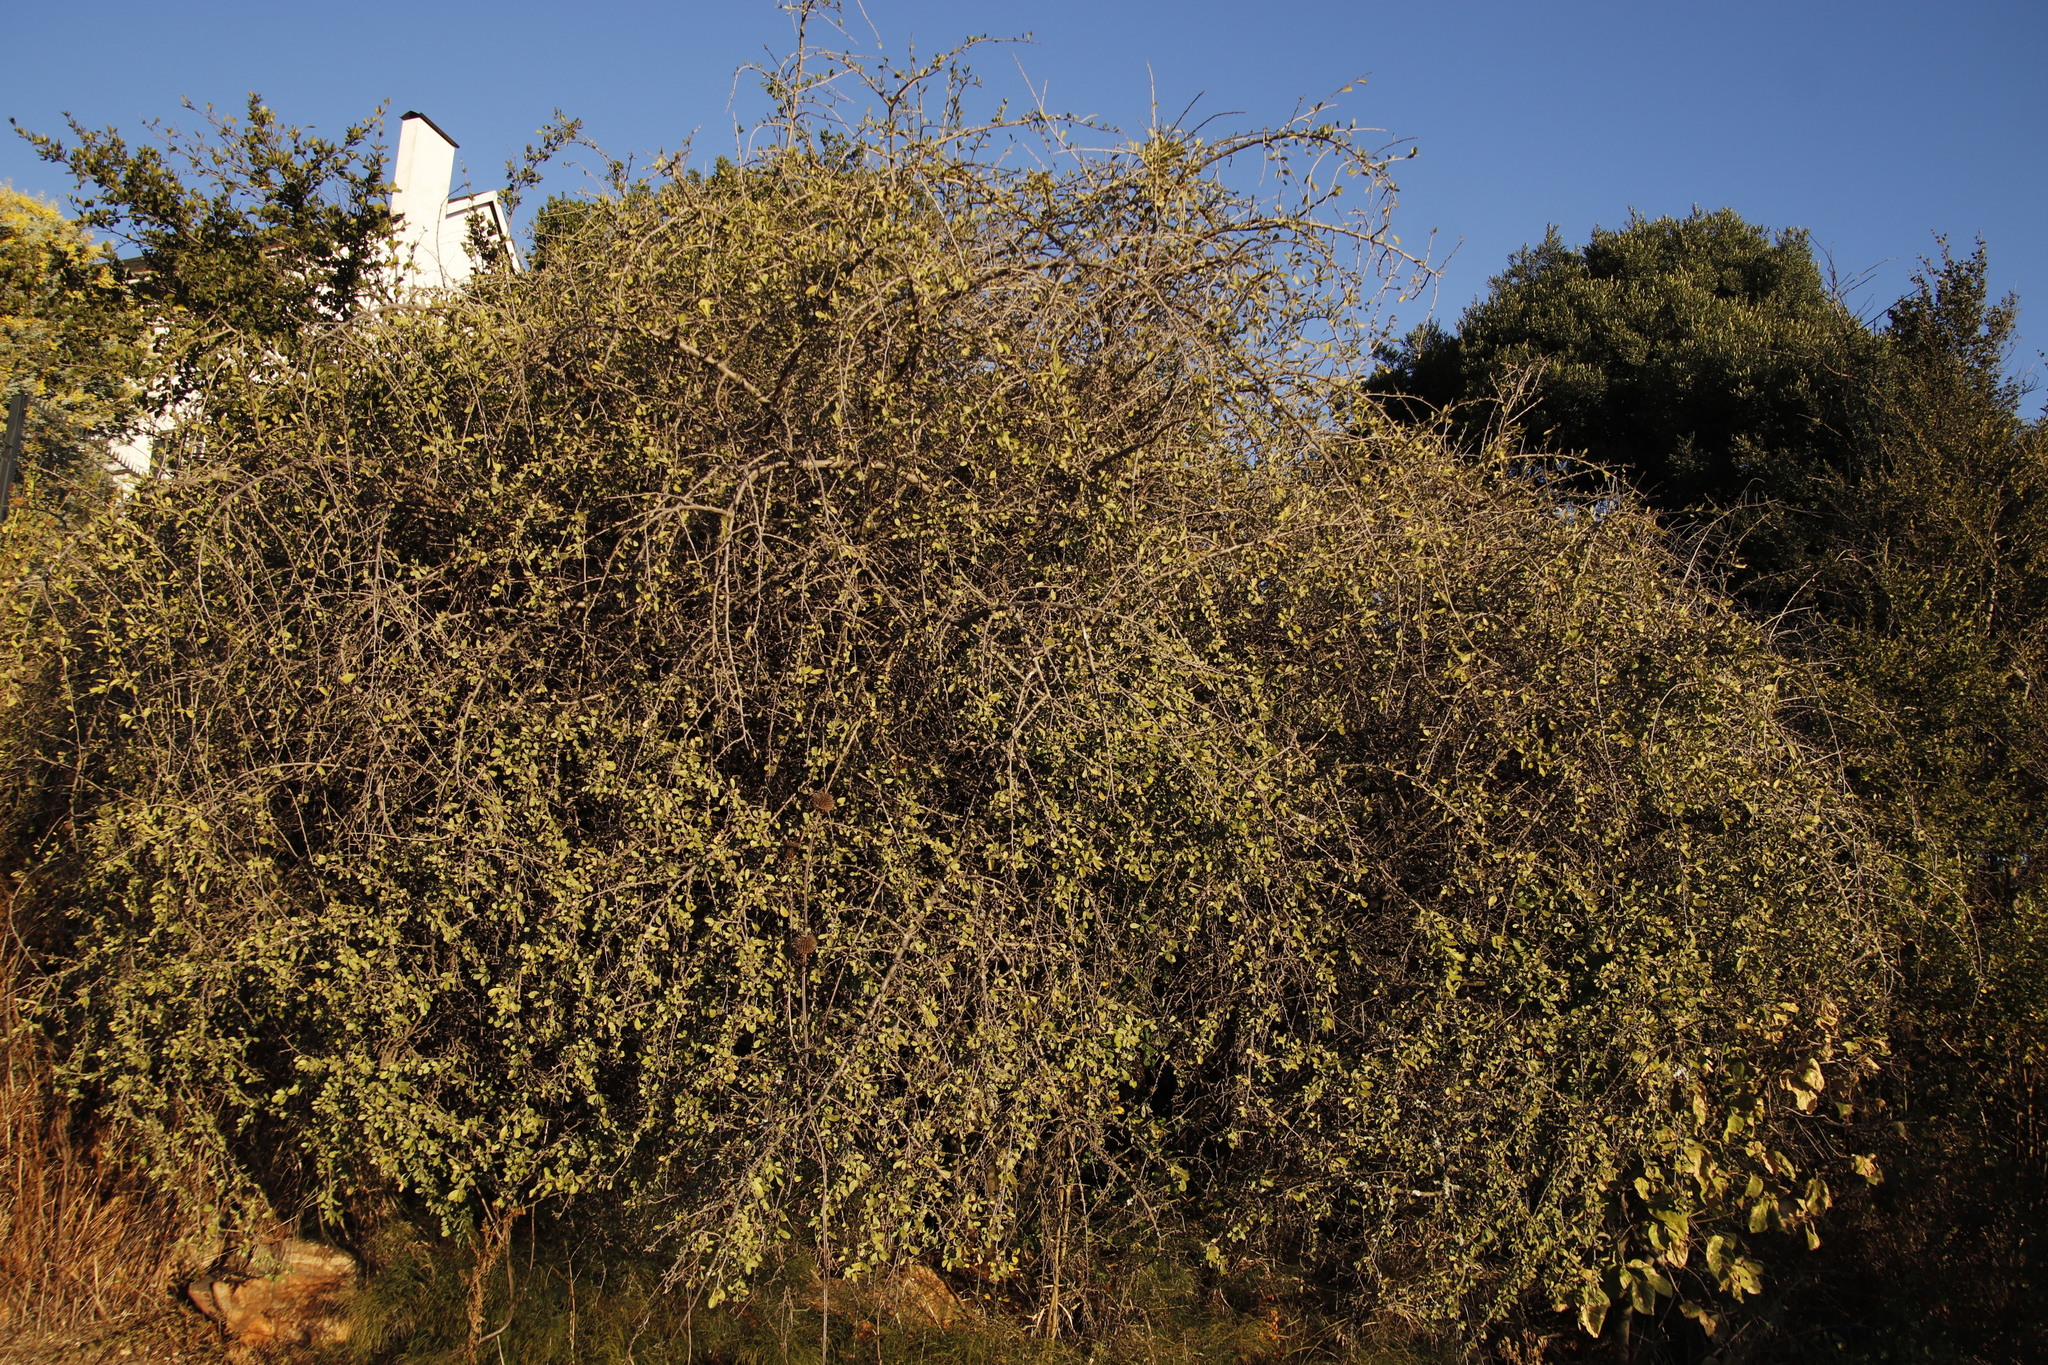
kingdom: Plantae
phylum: Tracheophyta
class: Magnoliopsida
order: Boraginales
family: Ehretiaceae
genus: Ehretia
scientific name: Ehretia rigida
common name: Cape lilac
